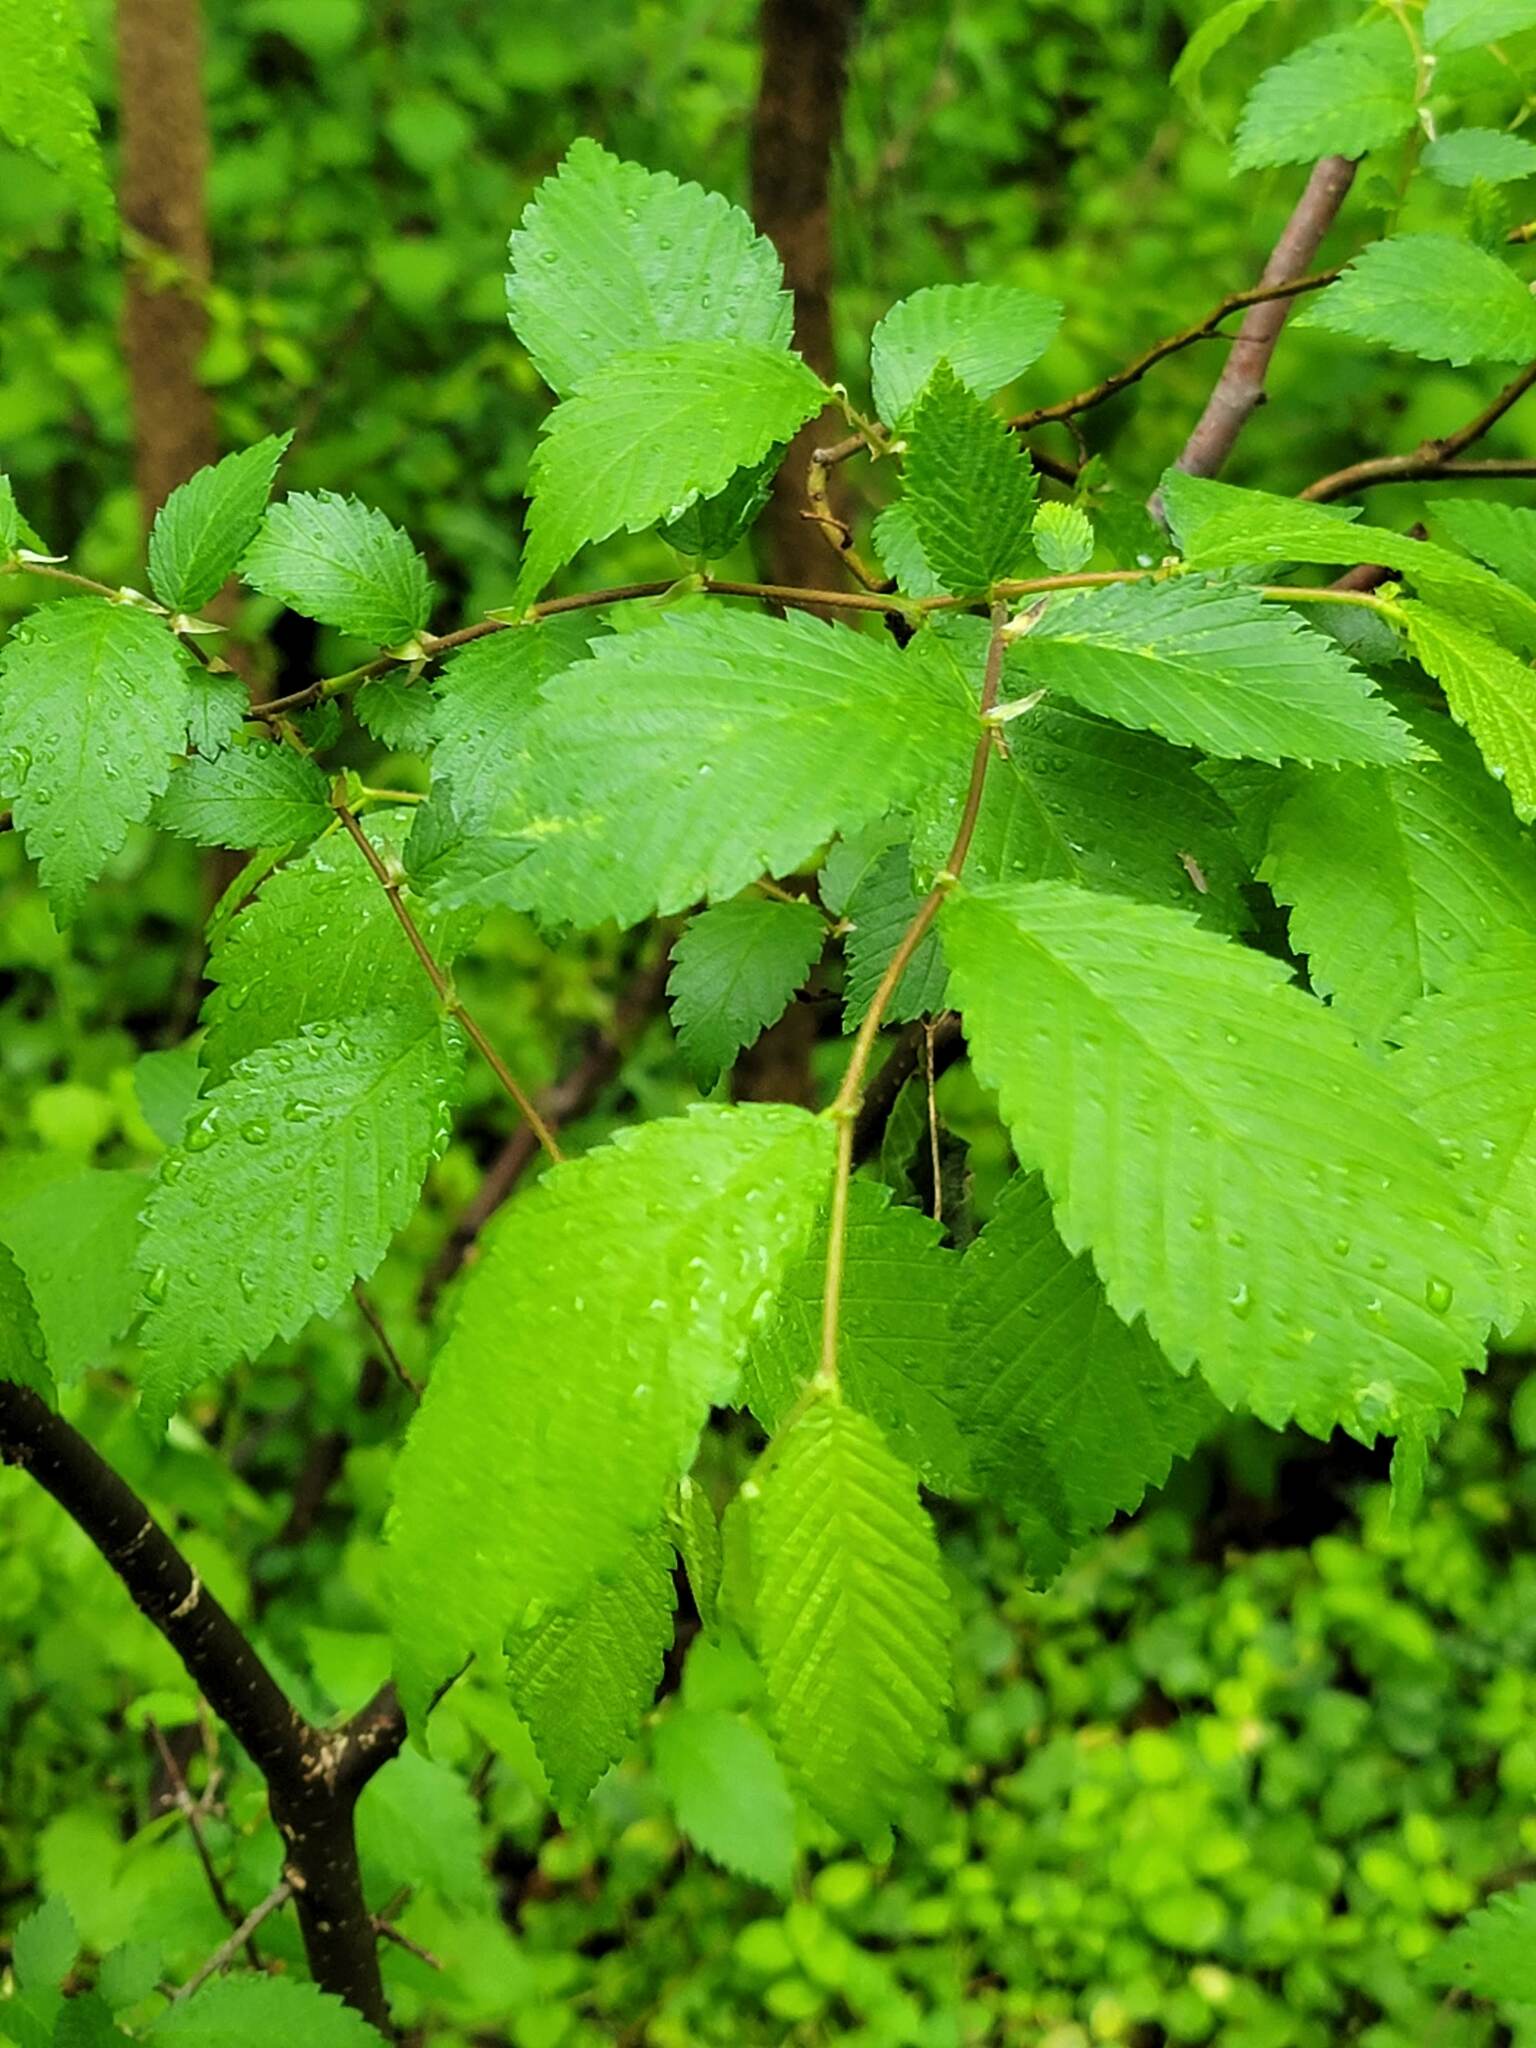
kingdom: Plantae
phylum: Tracheophyta
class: Magnoliopsida
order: Rosales
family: Ulmaceae
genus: Ulmus
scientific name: Ulmus americana
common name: American elm
